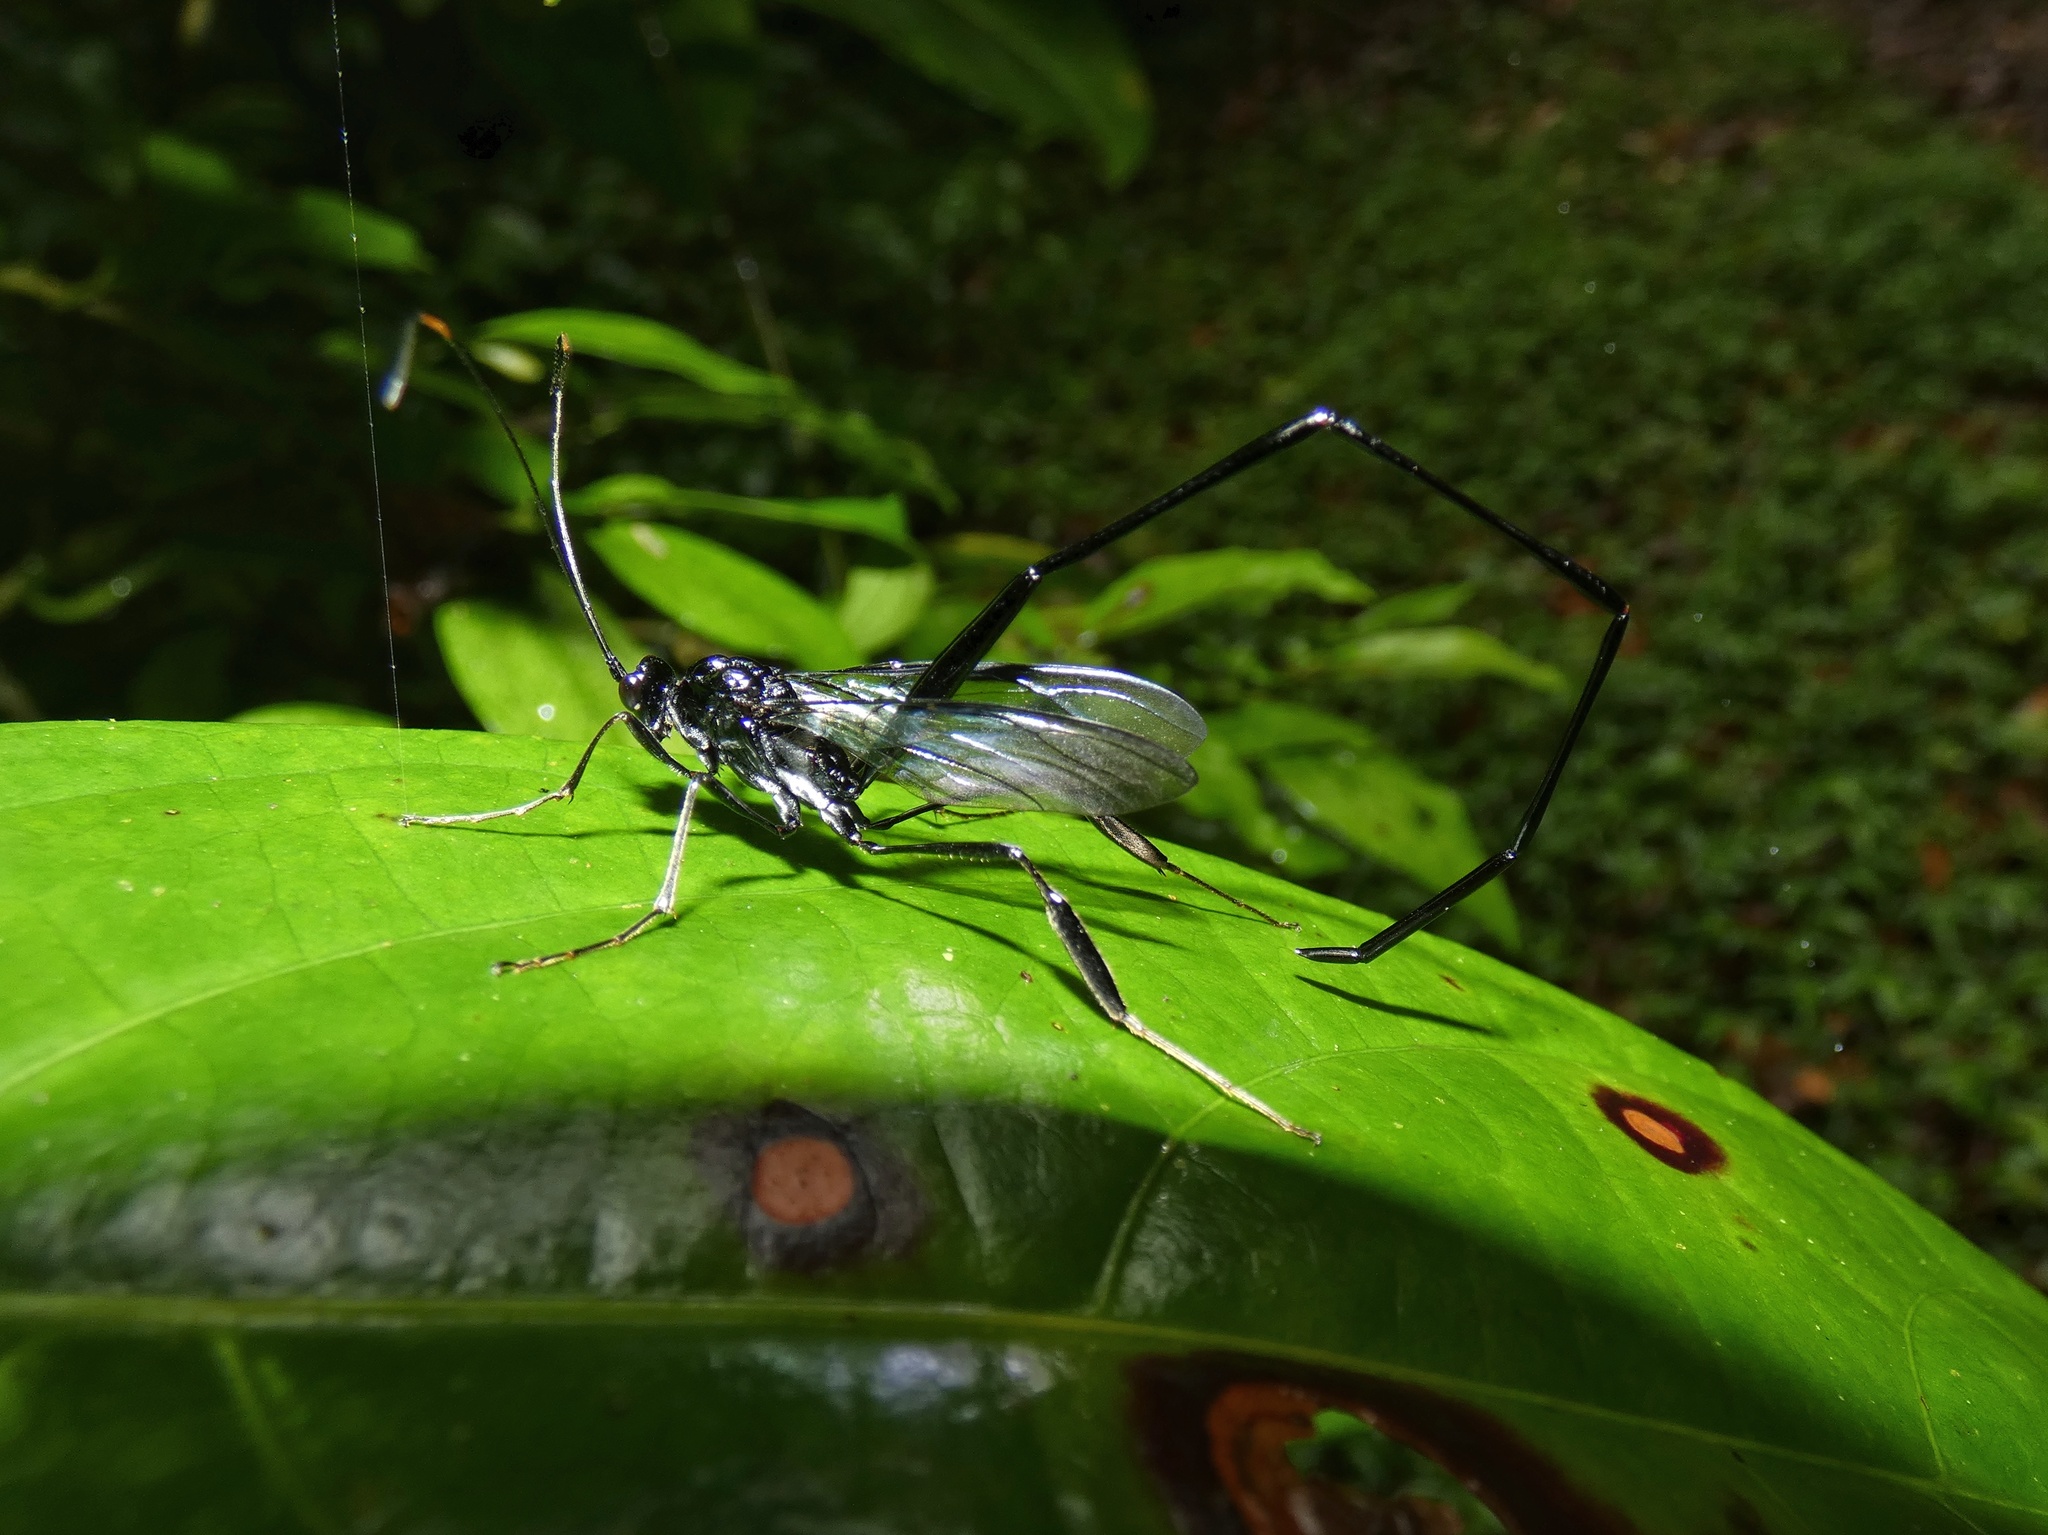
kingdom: Animalia
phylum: Arthropoda
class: Insecta
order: Hymenoptera
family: Pelecinidae
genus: Pelecinus
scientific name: Pelecinus polyturator
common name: American pelecinid wasp
